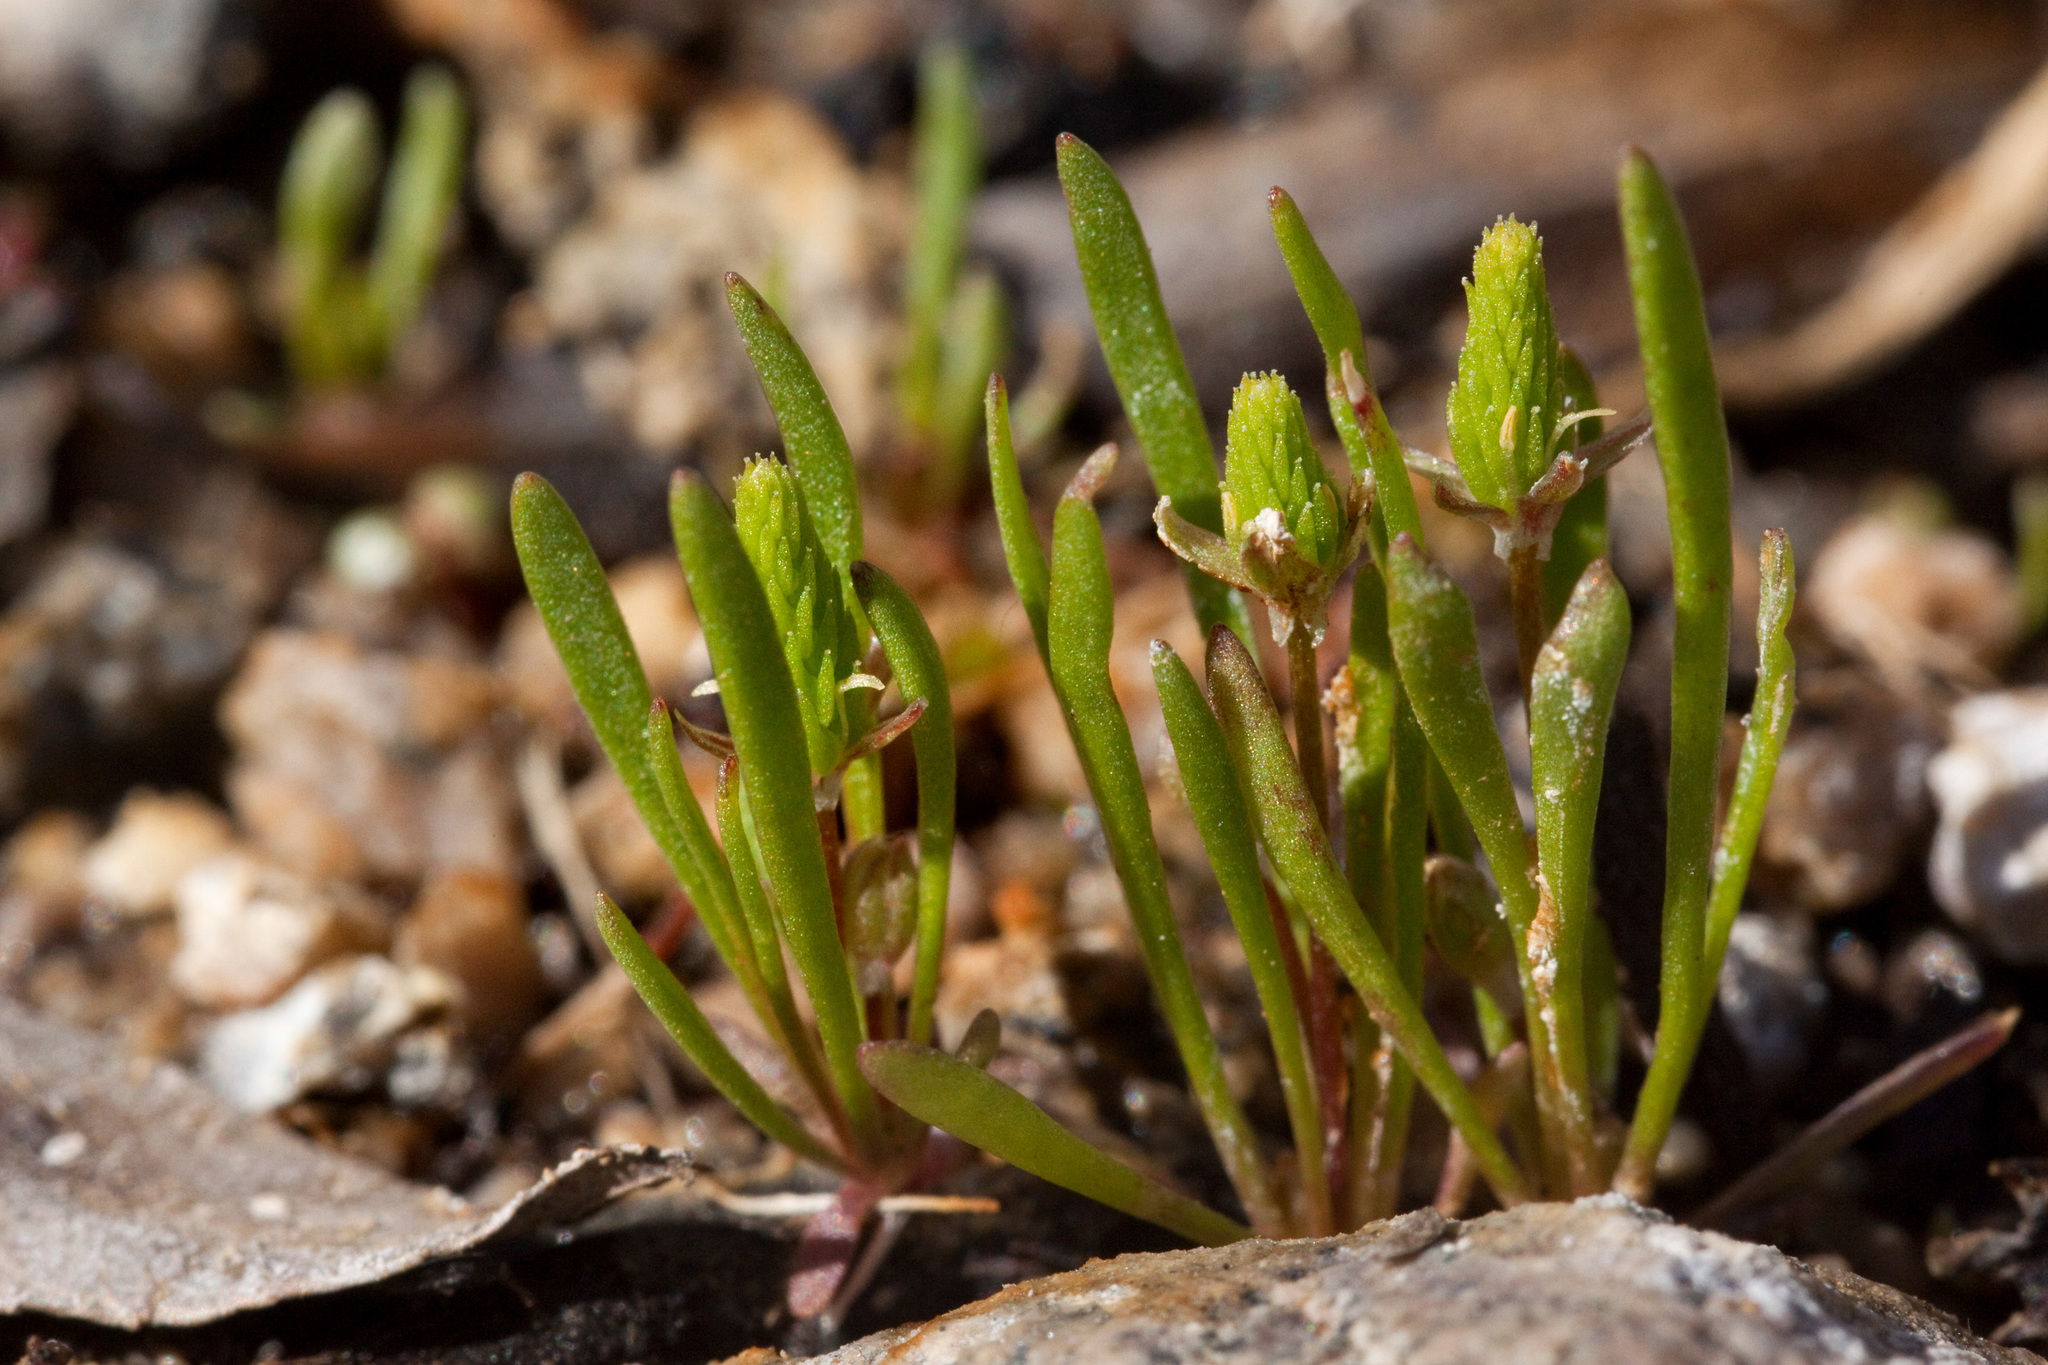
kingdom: Plantae
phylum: Tracheophyta
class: Magnoliopsida
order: Ranunculales
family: Ranunculaceae
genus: Myosurus
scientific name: Myosurus cupulatus
